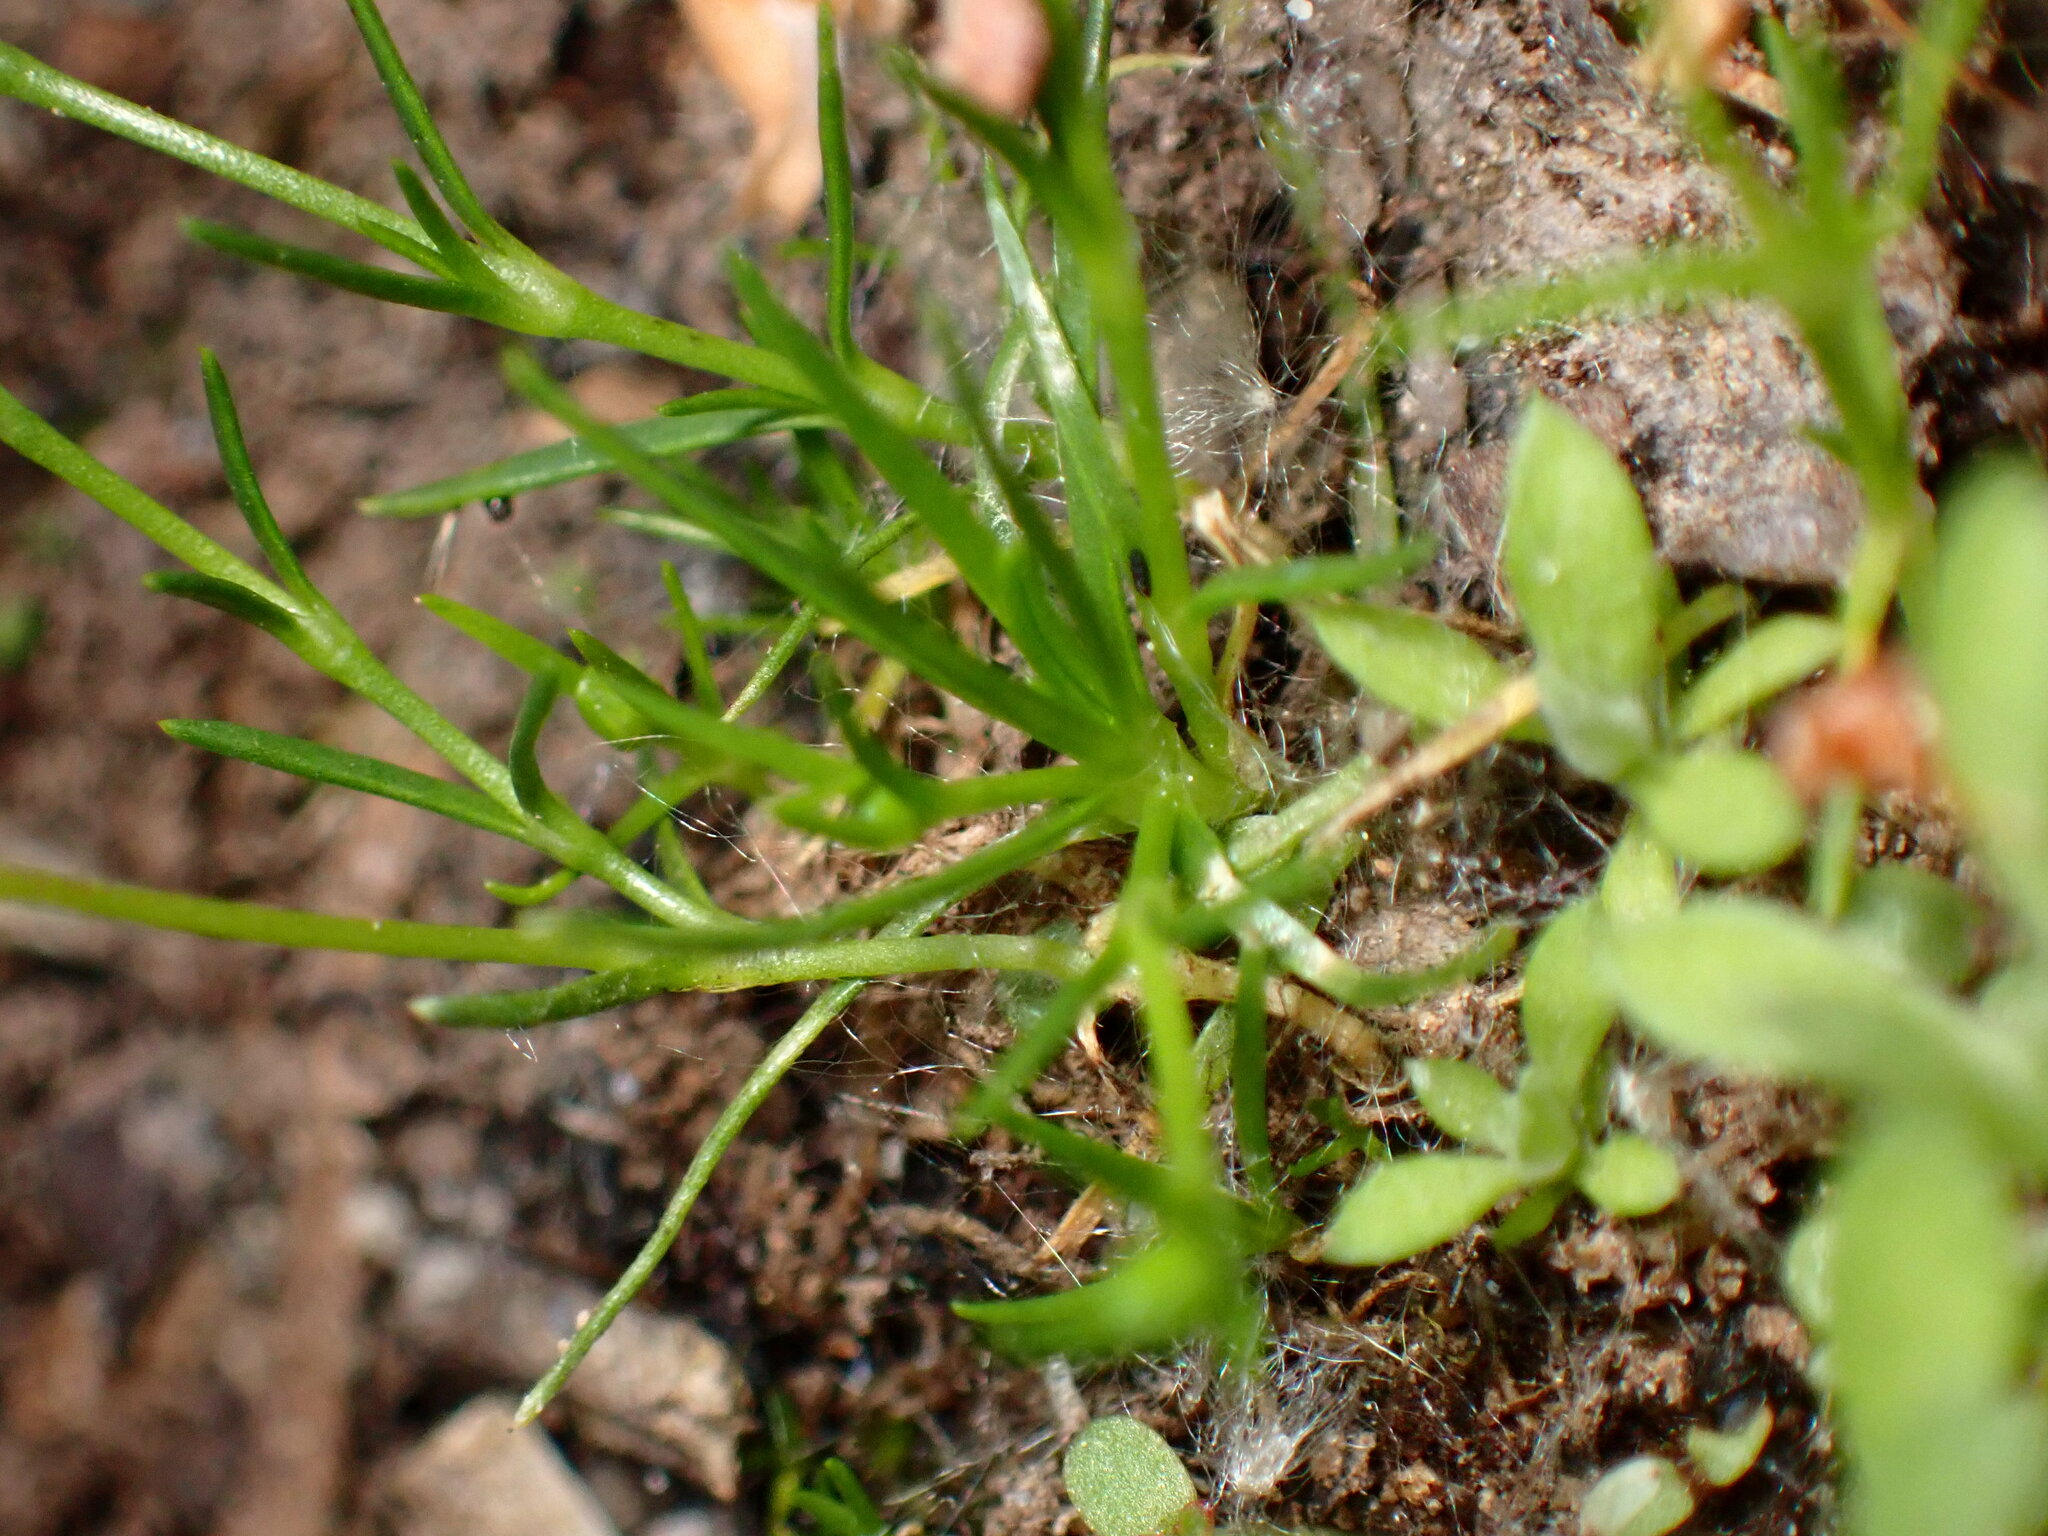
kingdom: Plantae
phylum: Tracheophyta
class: Magnoliopsida
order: Caryophyllales
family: Caryophyllaceae
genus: Sagina
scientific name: Sagina saginoides
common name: Alpine pearlwort
